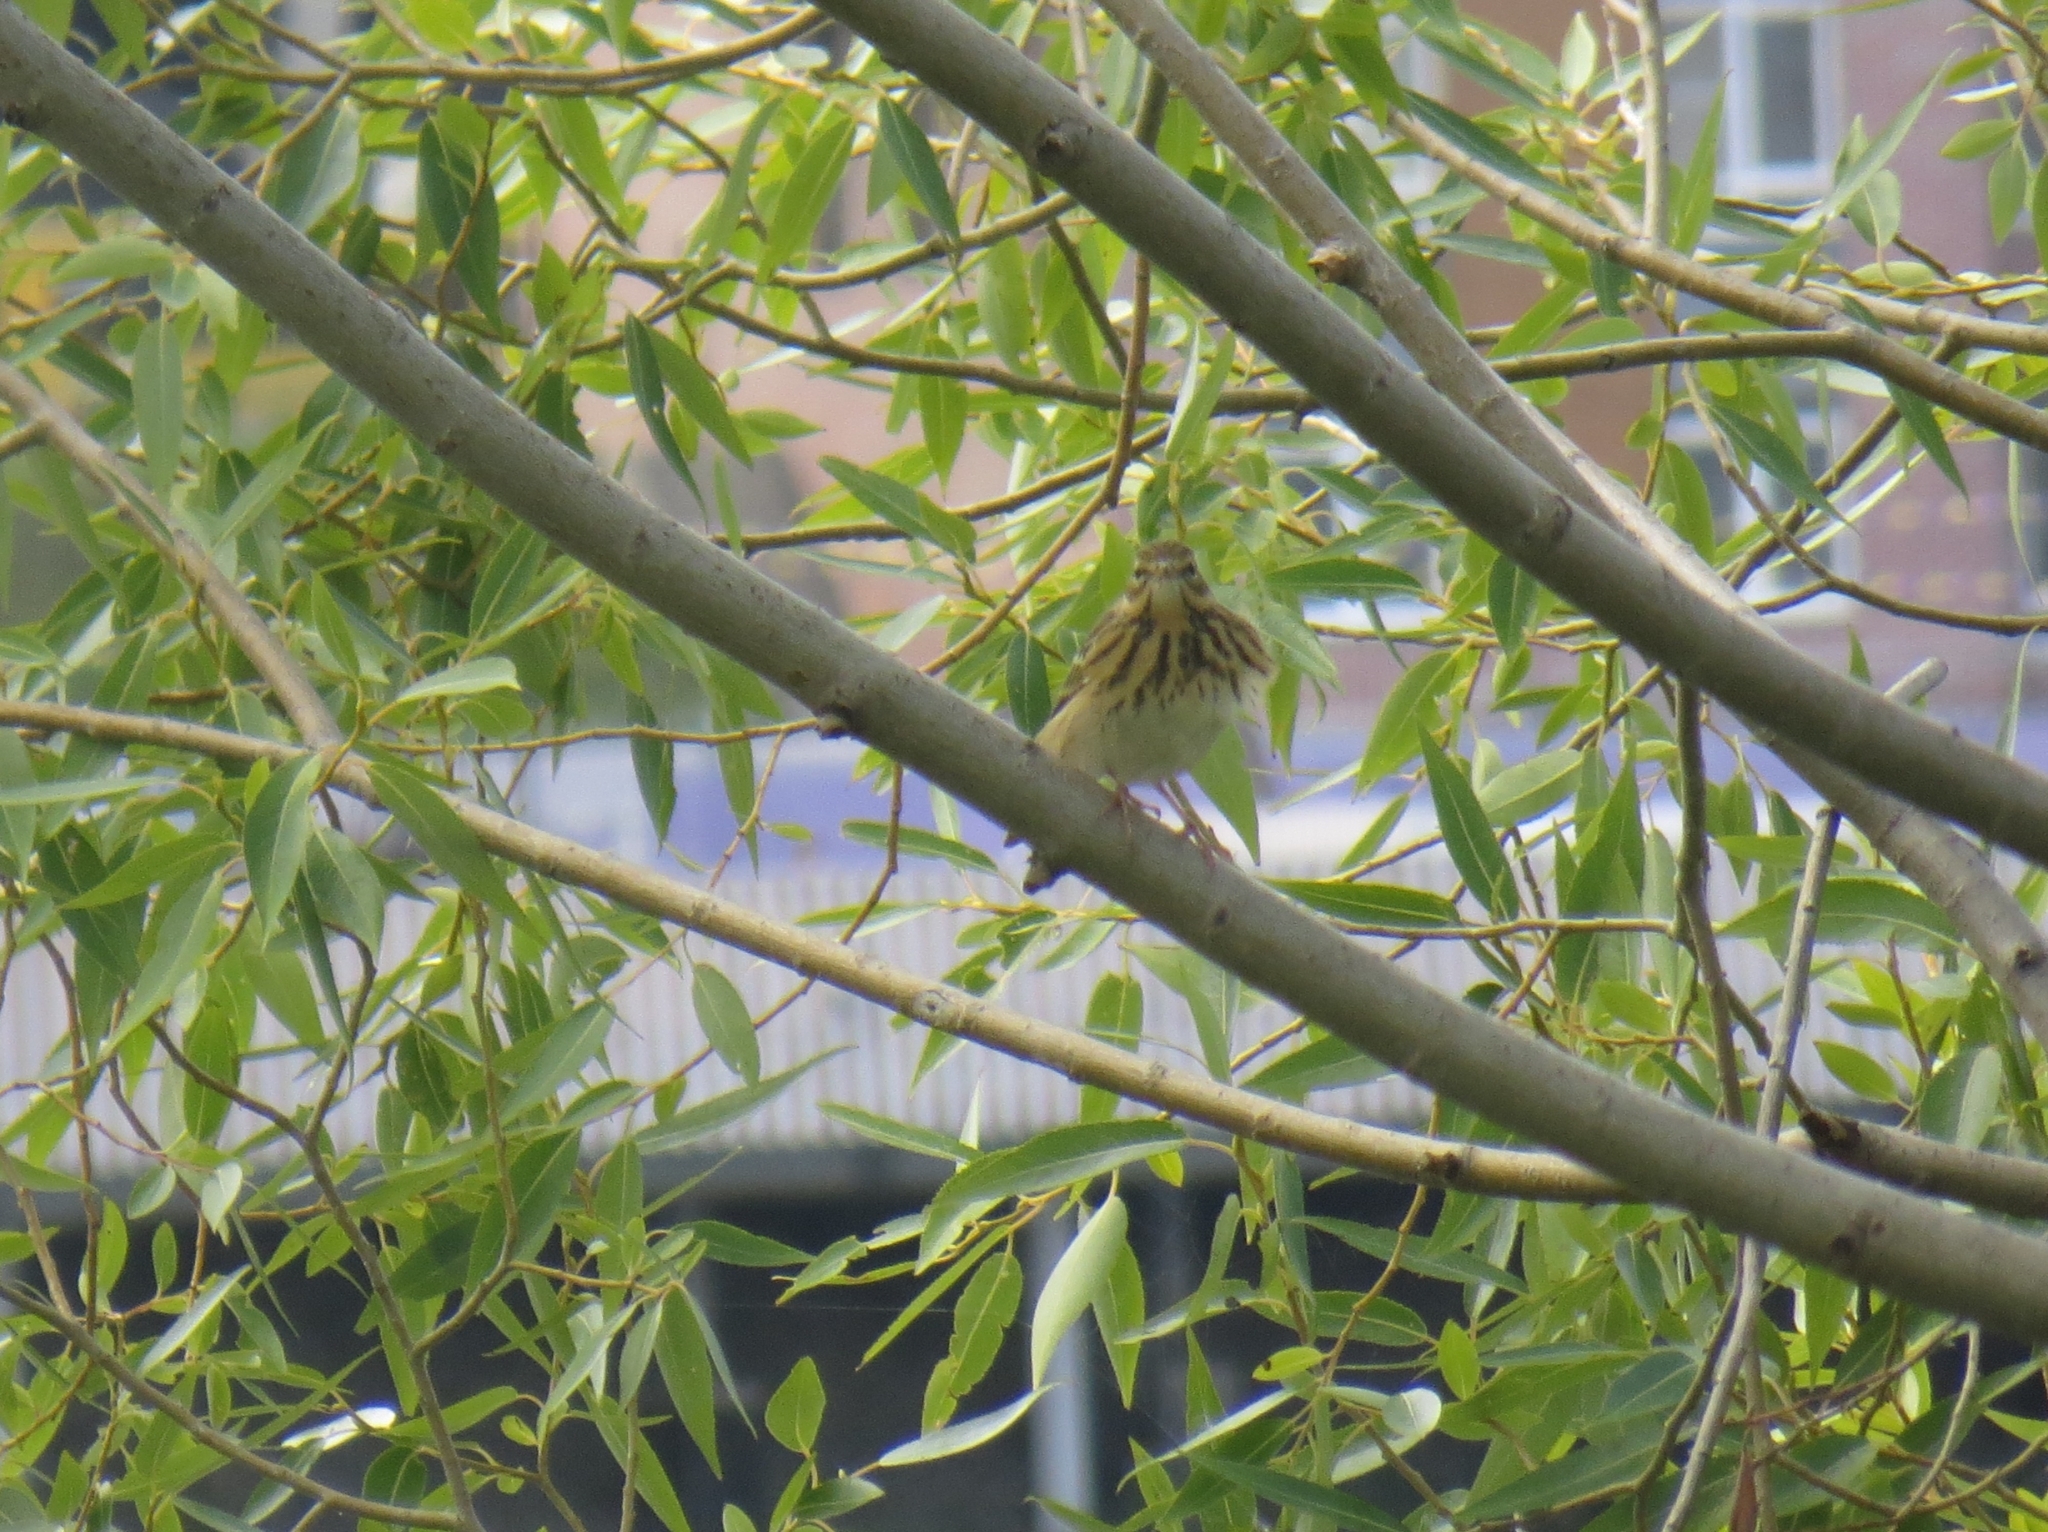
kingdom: Animalia
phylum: Chordata
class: Aves
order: Passeriformes
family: Motacillidae
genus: Anthus
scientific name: Anthus trivialis
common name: Tree pipit
